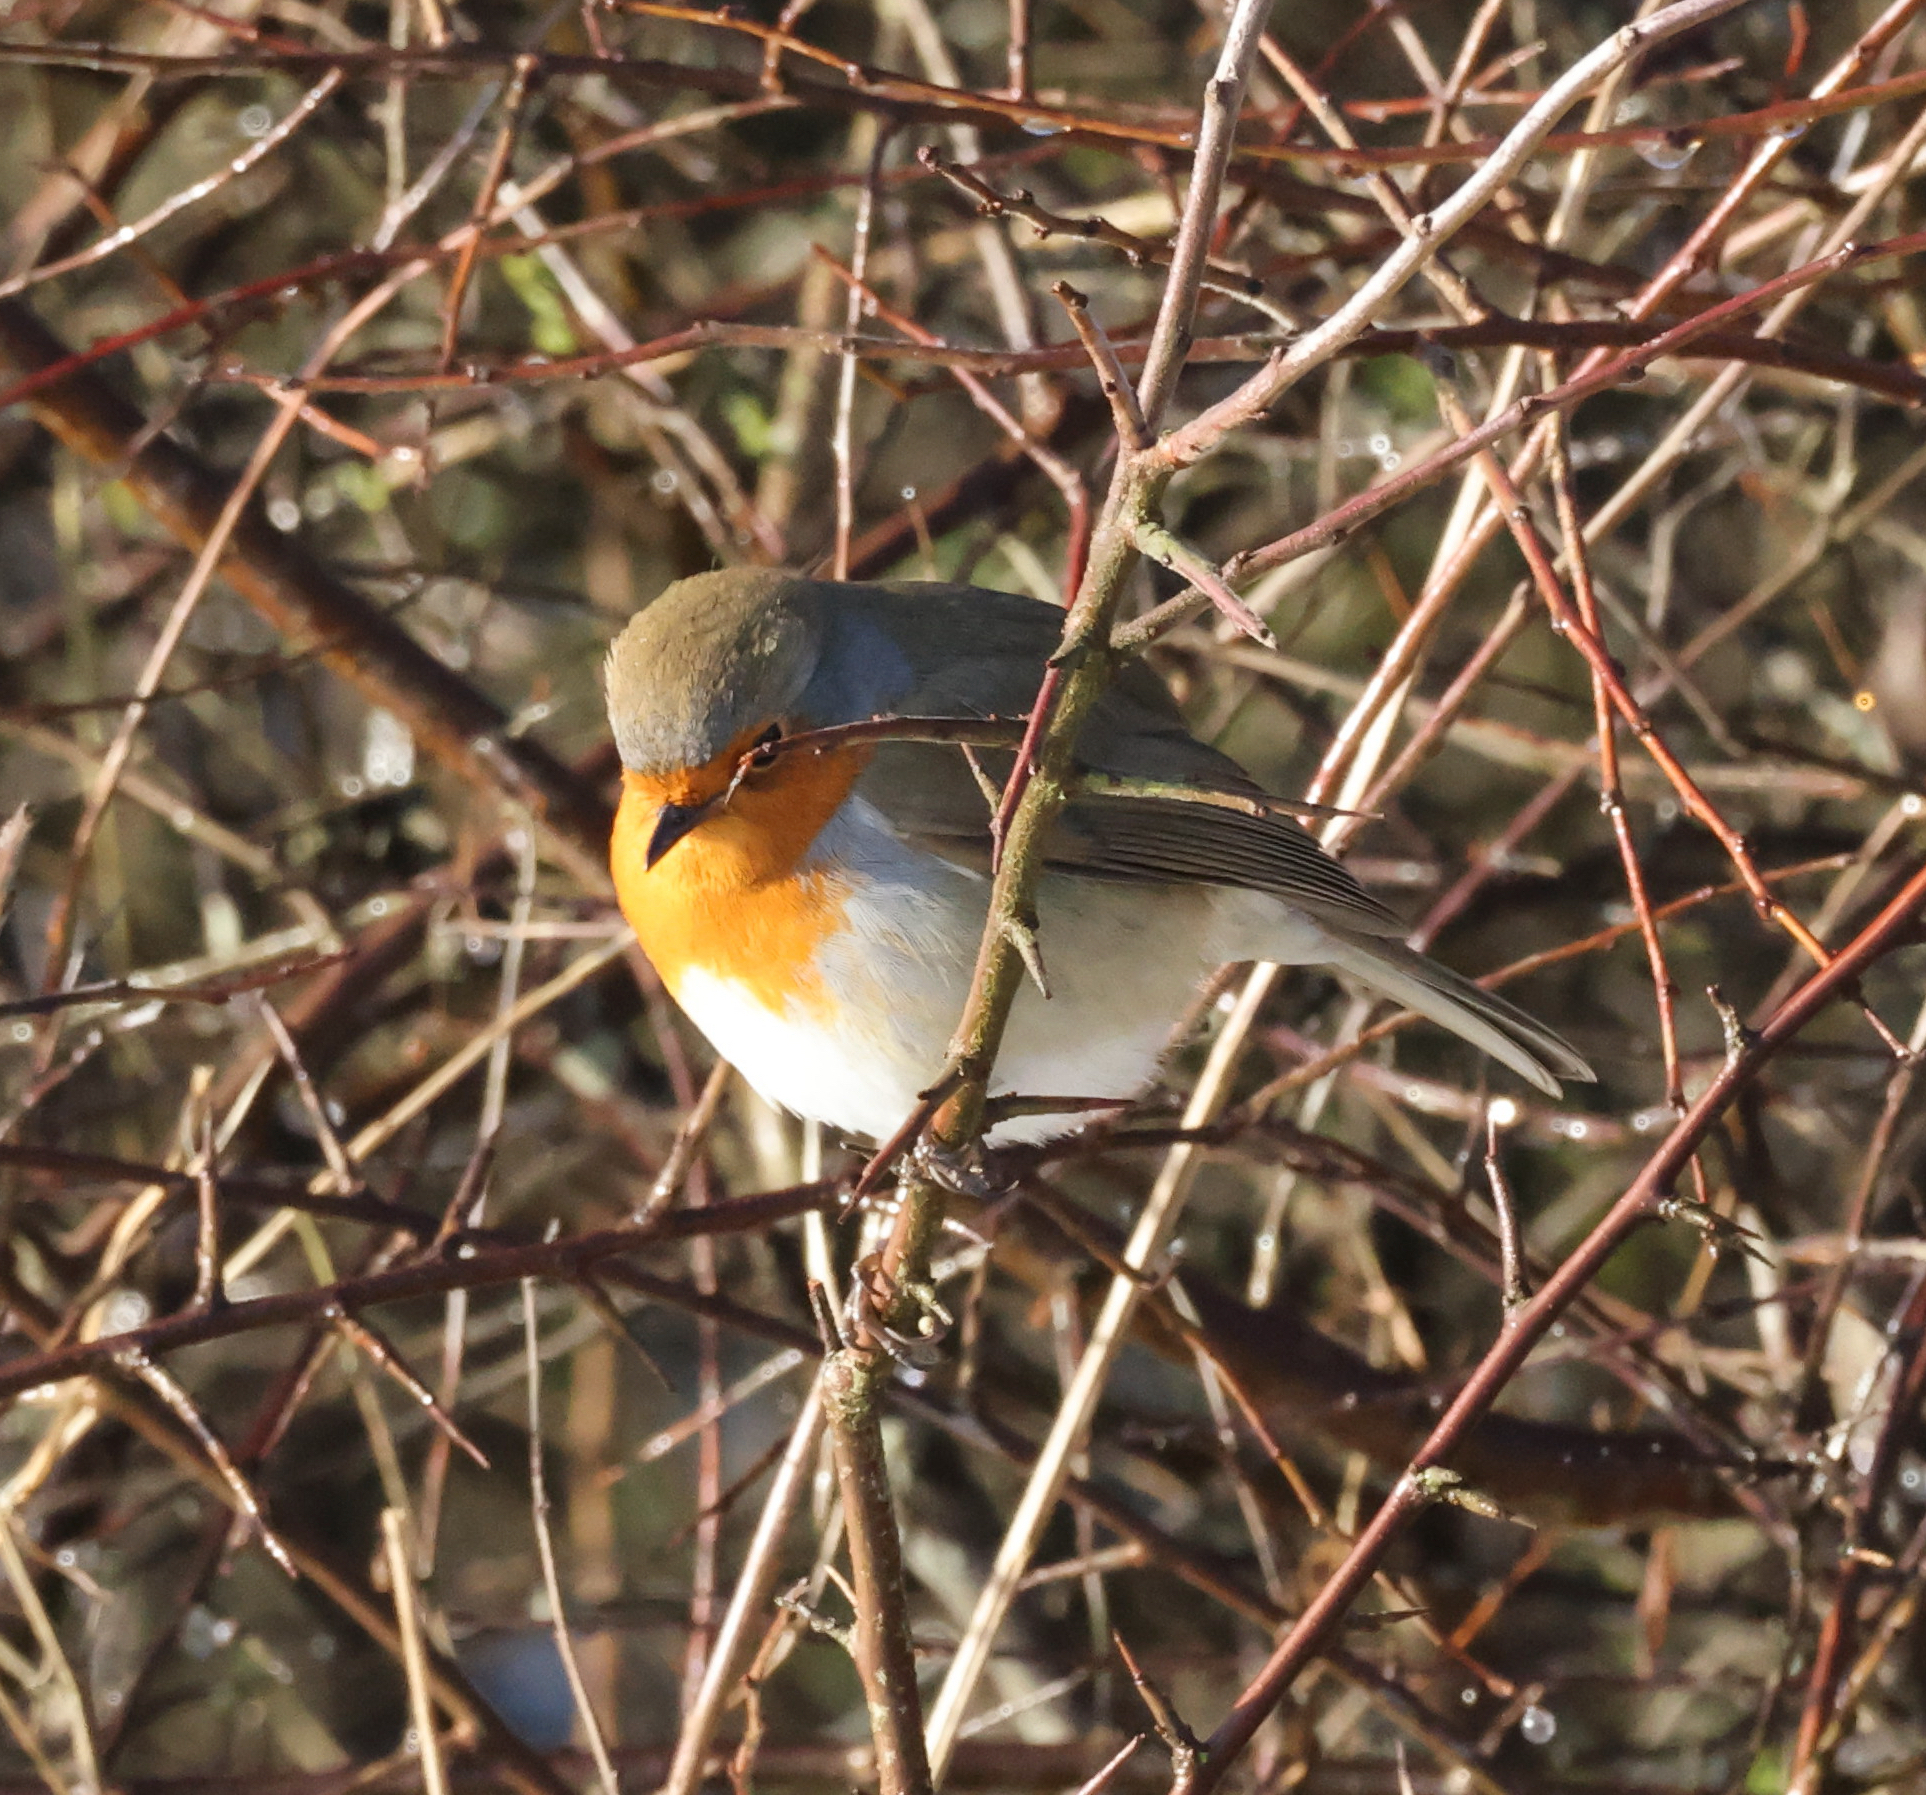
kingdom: Animalia
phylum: Chordata
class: Aves
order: Passeriformes
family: Muscicapidae
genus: Erithacus
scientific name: Erithacus rubecula
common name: European robin
